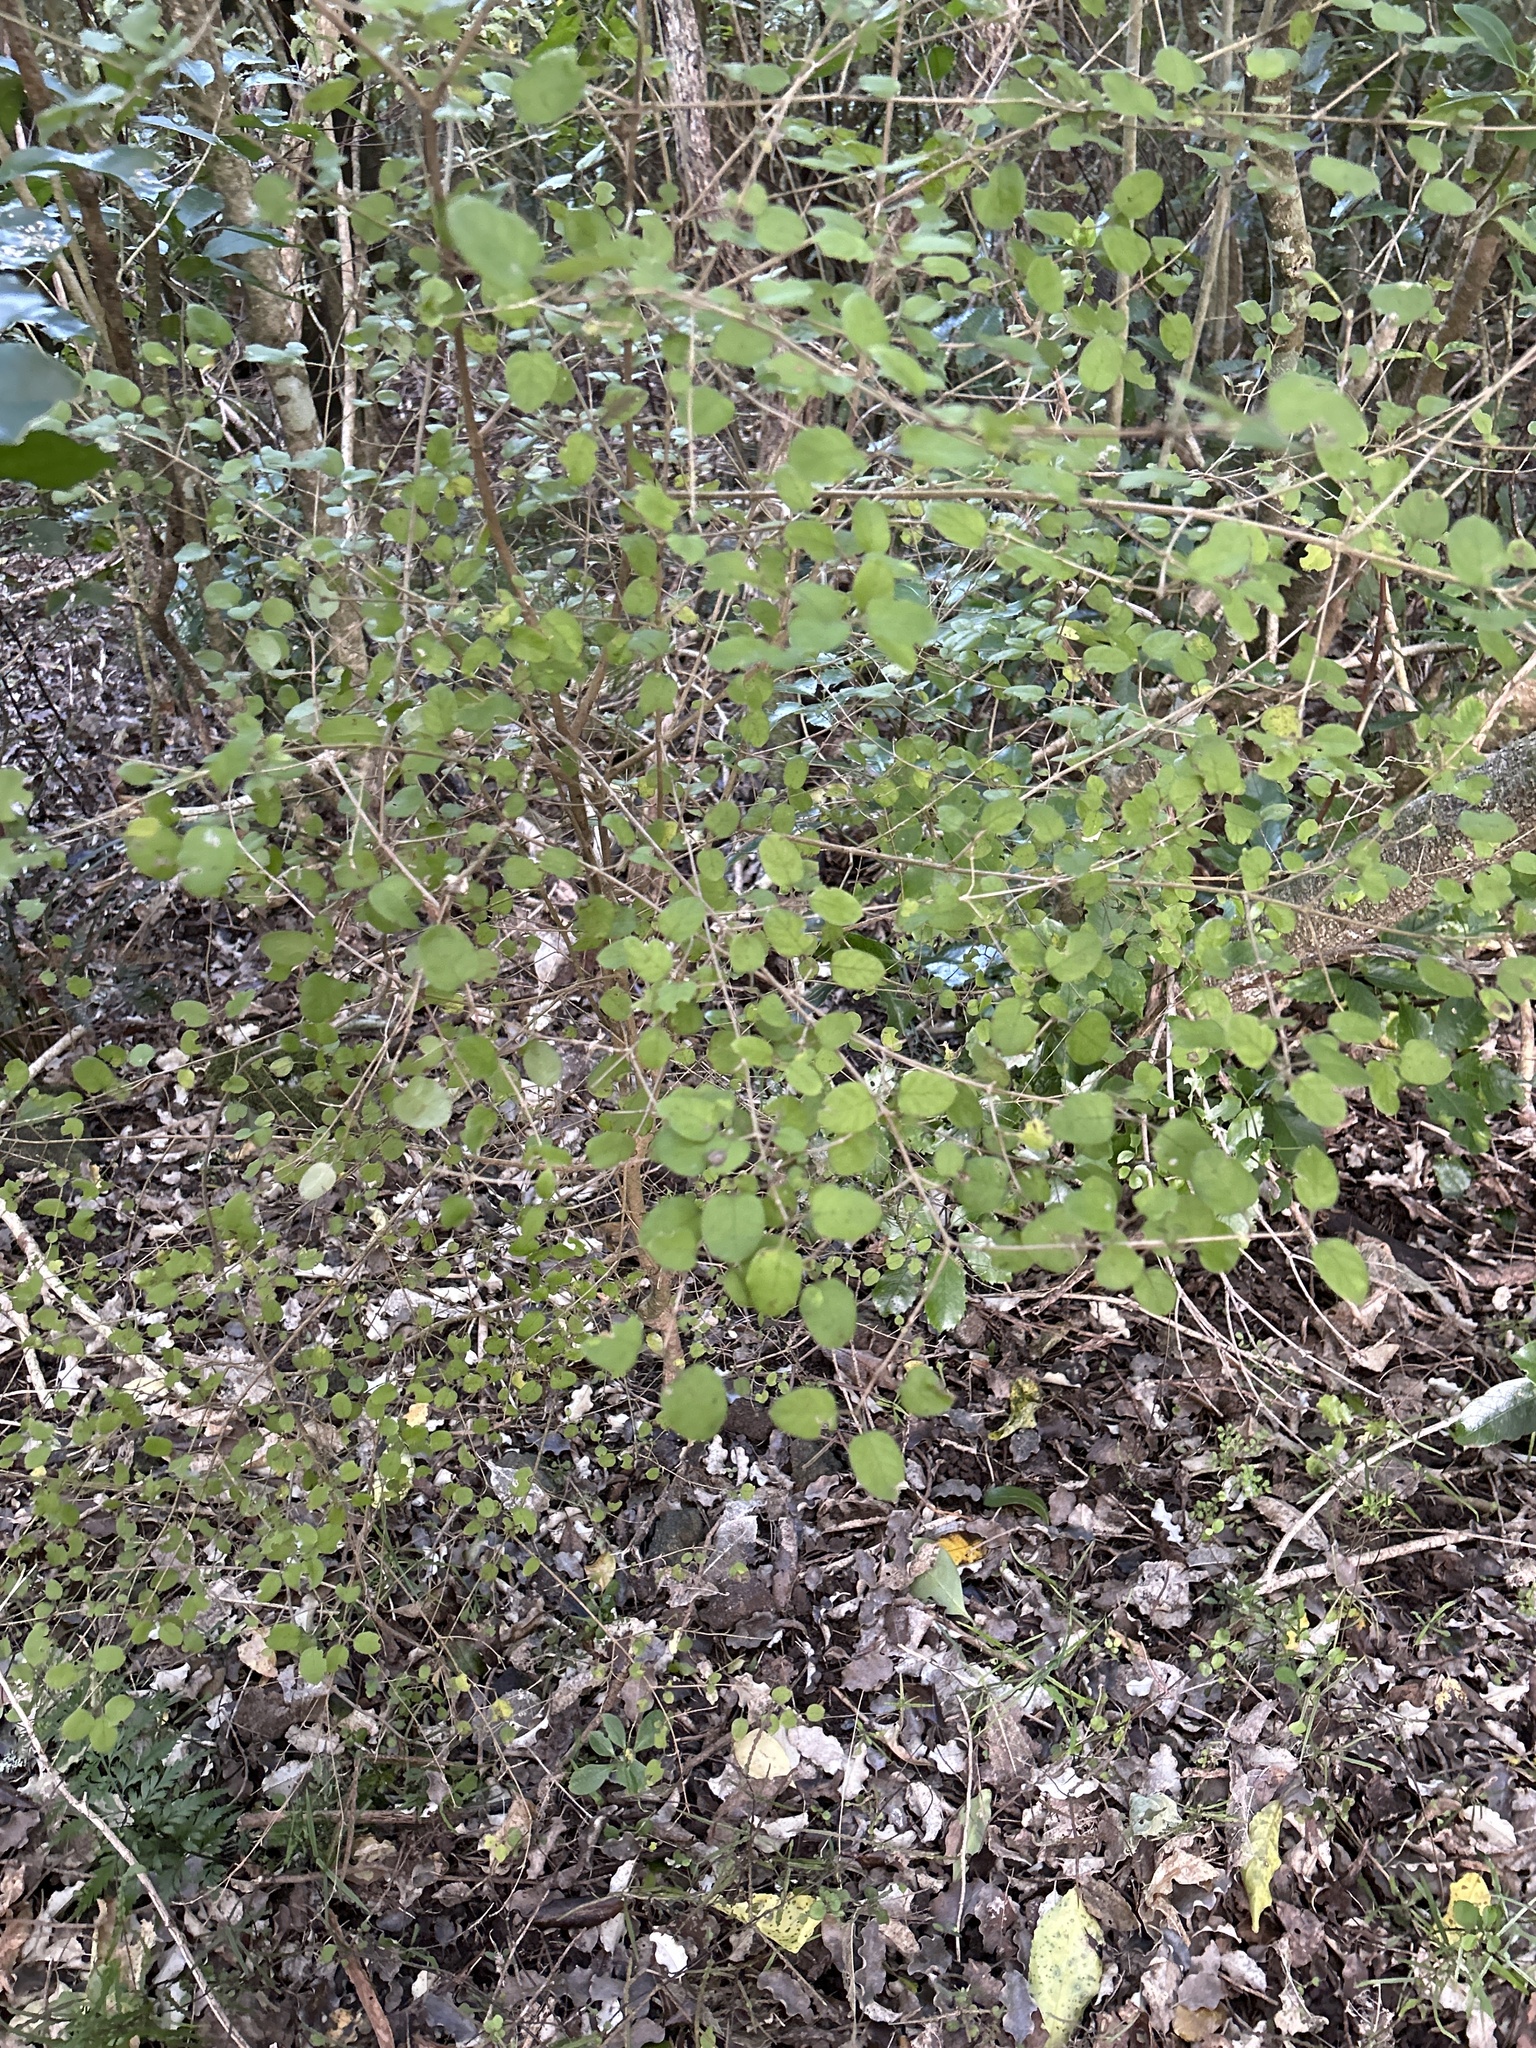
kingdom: Plantae
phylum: Tracheophyta
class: Magnoliopsida
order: Gentianales
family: Rubiaceae
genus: Coprosma
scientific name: Coprosma rotundifolia
